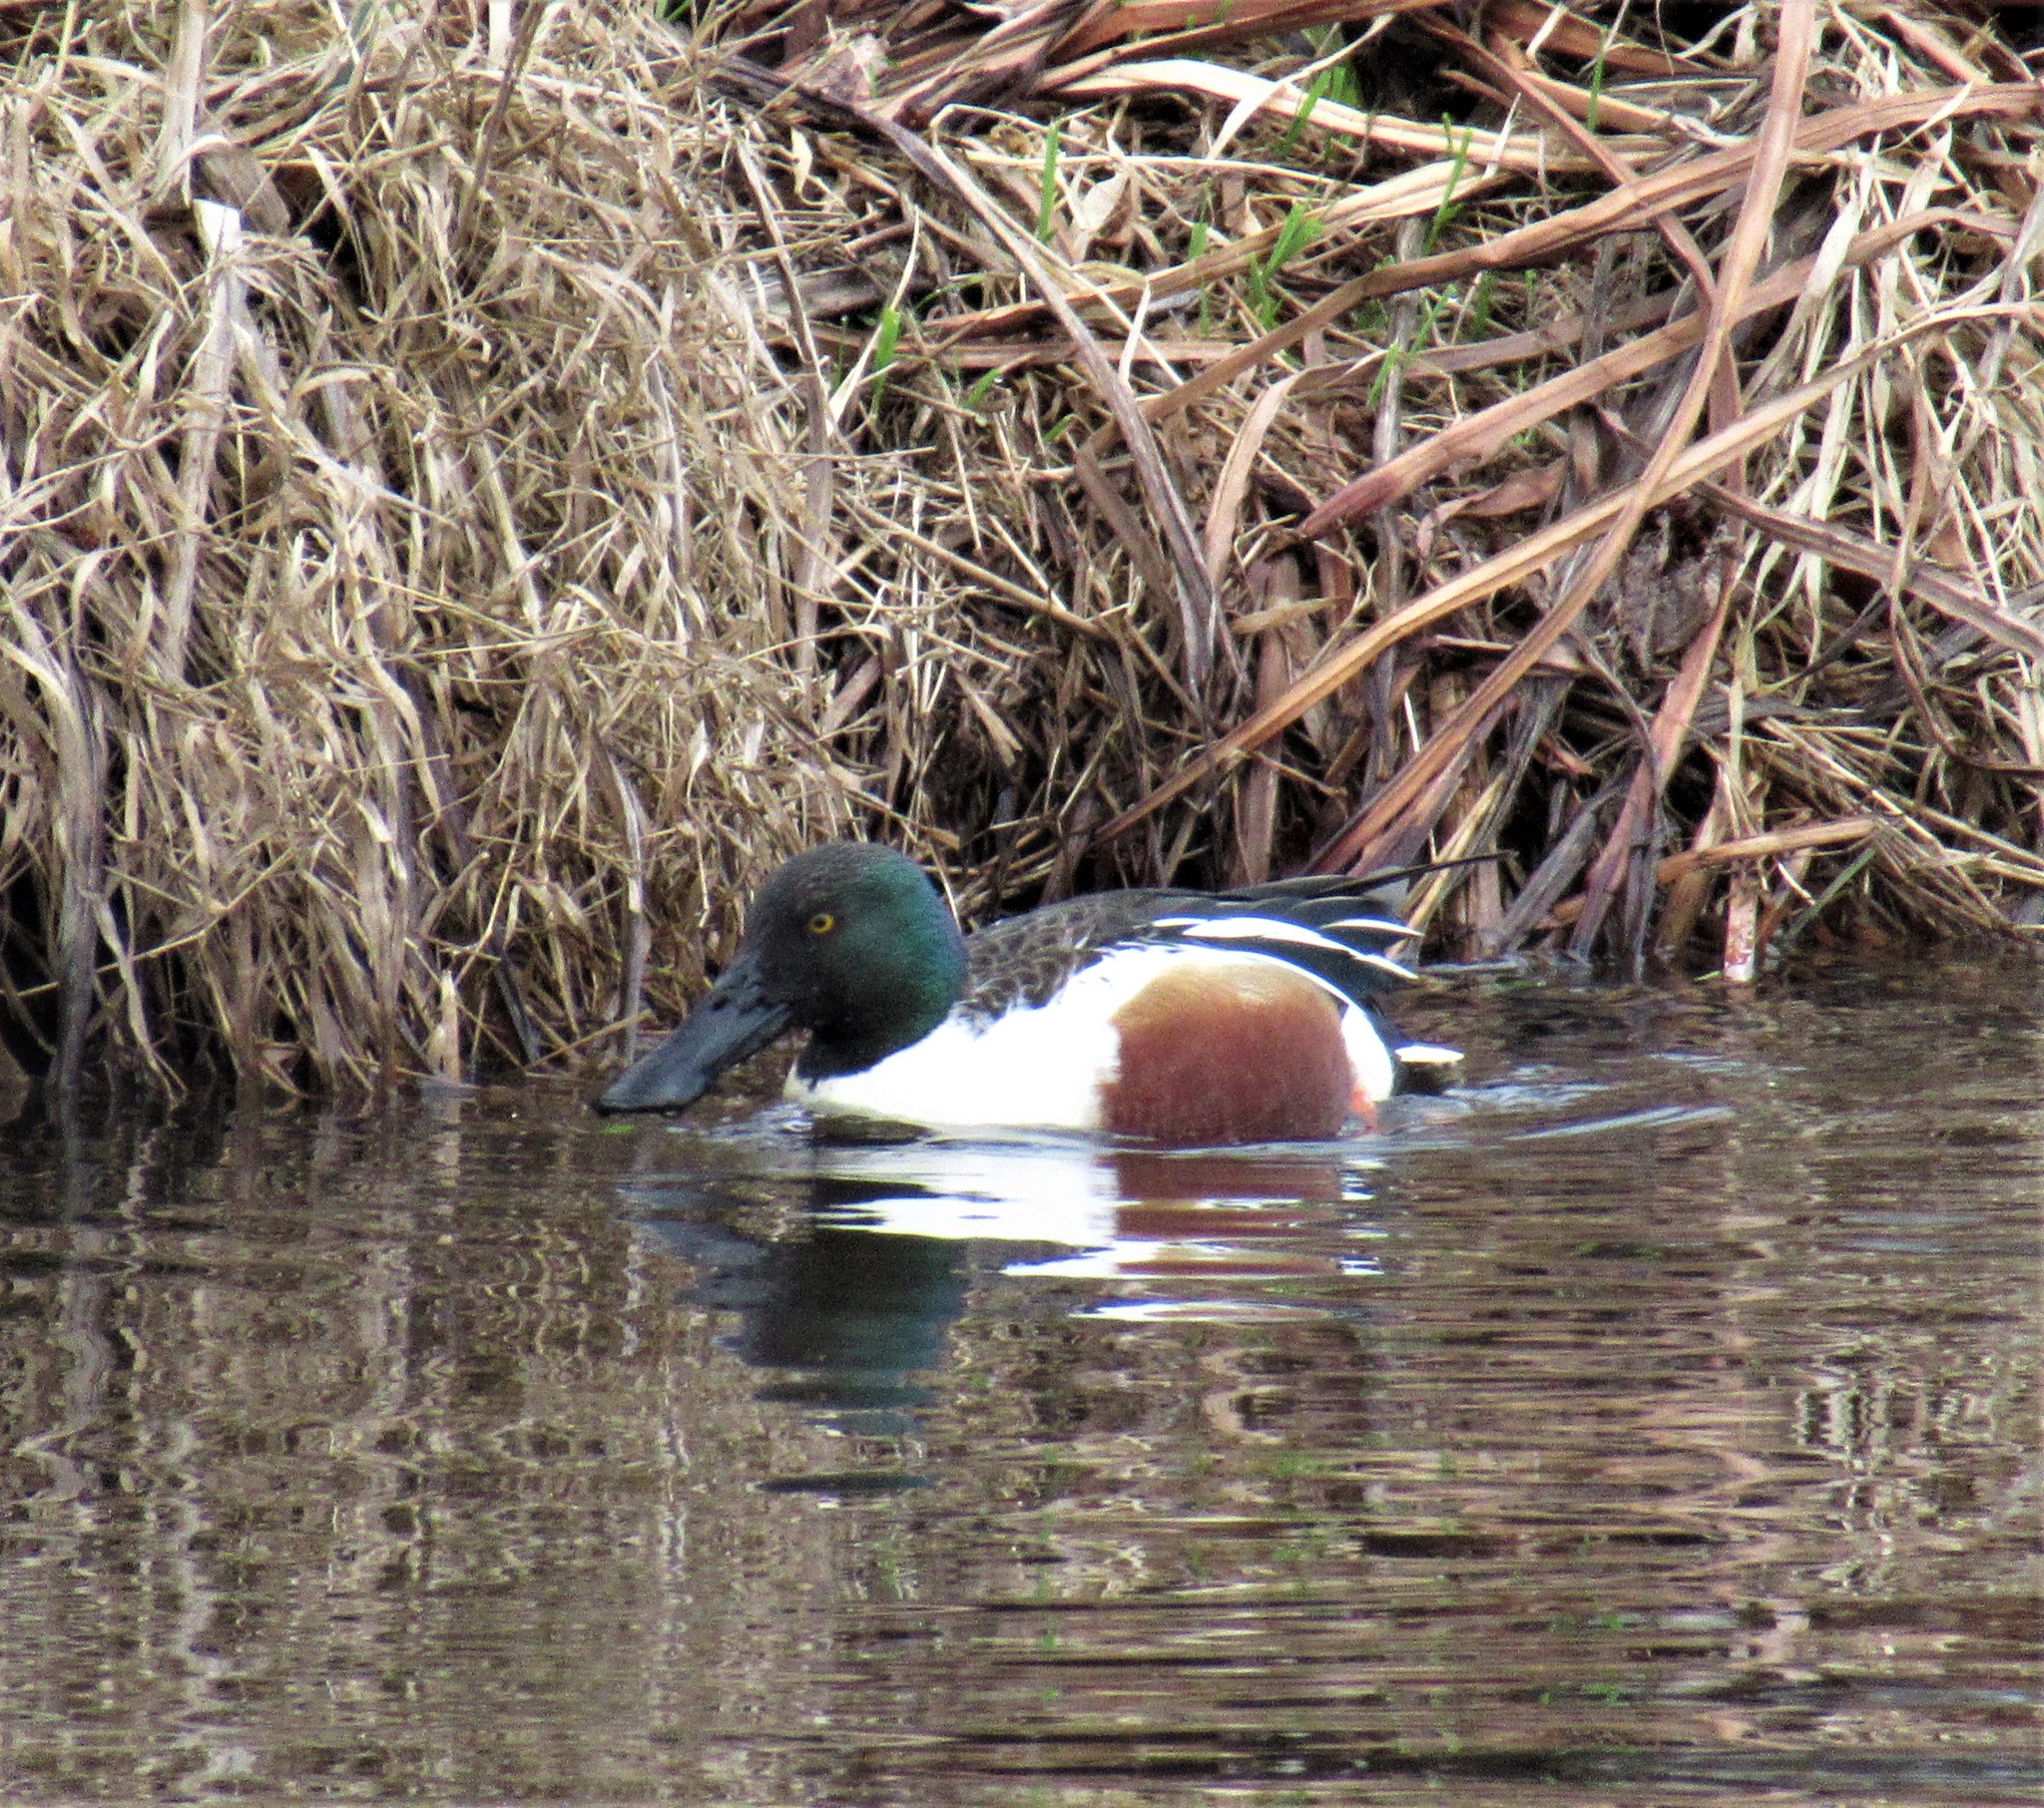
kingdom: Animalia
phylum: Chordata
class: Aves
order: Anseriformes
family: Anatidae
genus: Spatula
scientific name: Spatula clypeata
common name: Northern shoveler
